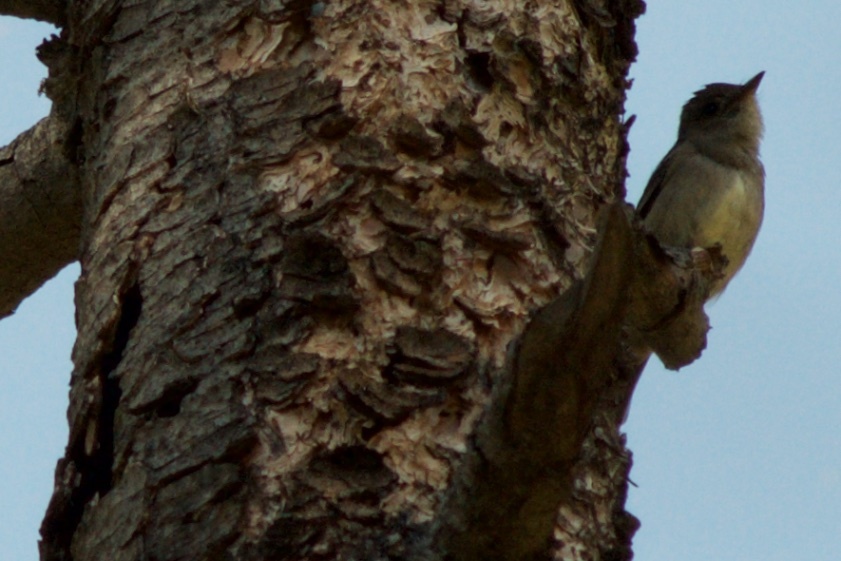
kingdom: Animalia
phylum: Chordata
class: Aves
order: Passeriformes
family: Tyrannidae
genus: Contopus
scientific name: Contopus sordidulus
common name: Western wood-pewee
